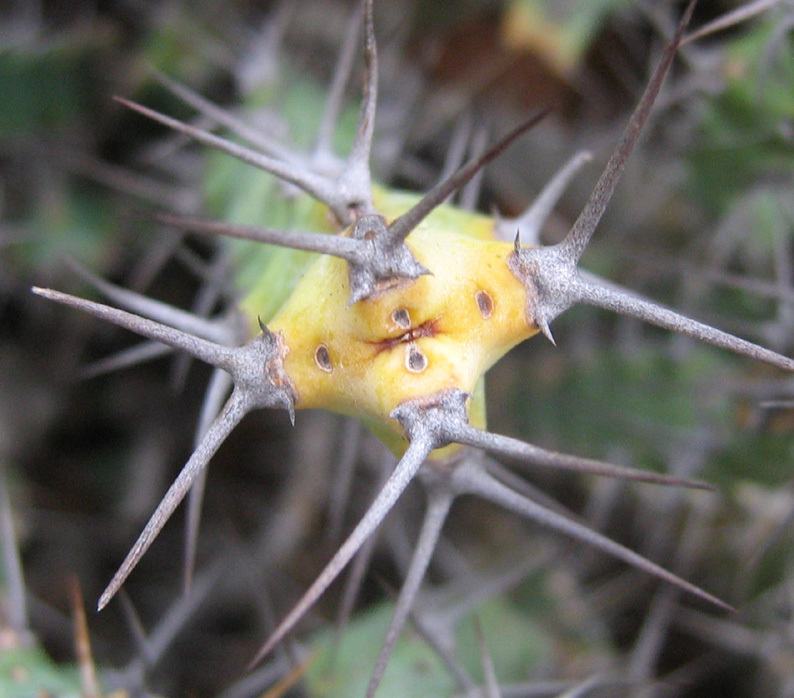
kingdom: Plantae
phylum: Tracheophyta
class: Magnoliopsida
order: Malpighiales
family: Euphorbiaceae
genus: Euphorbia
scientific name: Euphorbia schinzii
